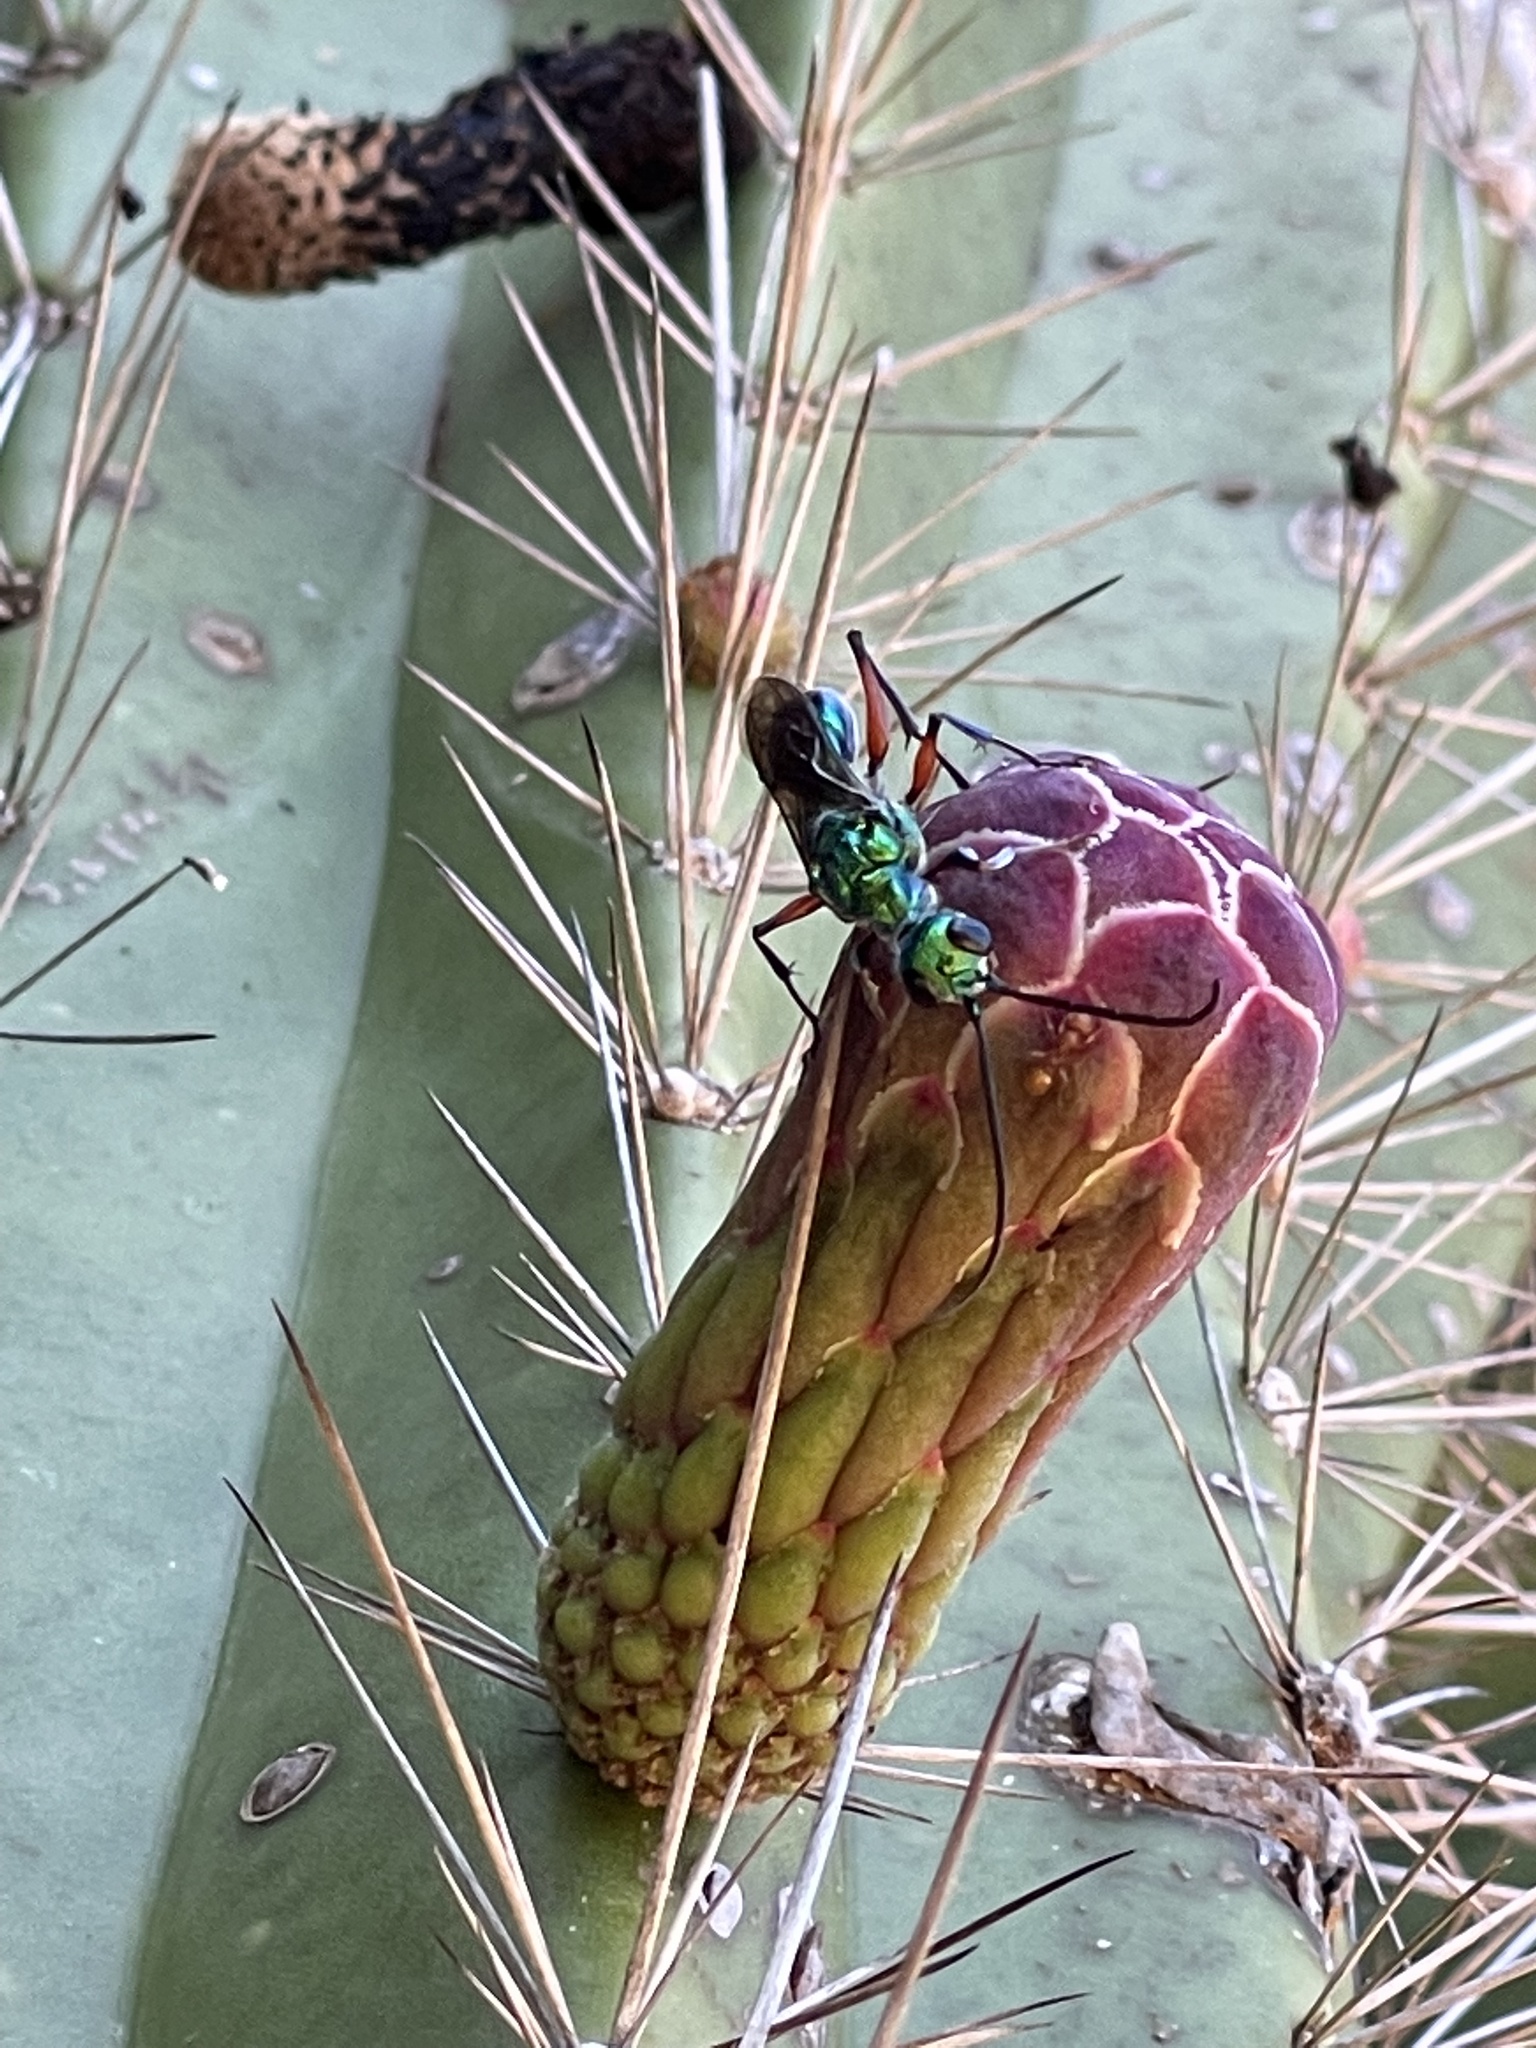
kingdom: Animalia
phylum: Arthropoda
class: Insecta
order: Hymenoptera
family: Ampulicidae
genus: Ampulex
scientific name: Ampulex compressa
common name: Emerald cockroach wasp
